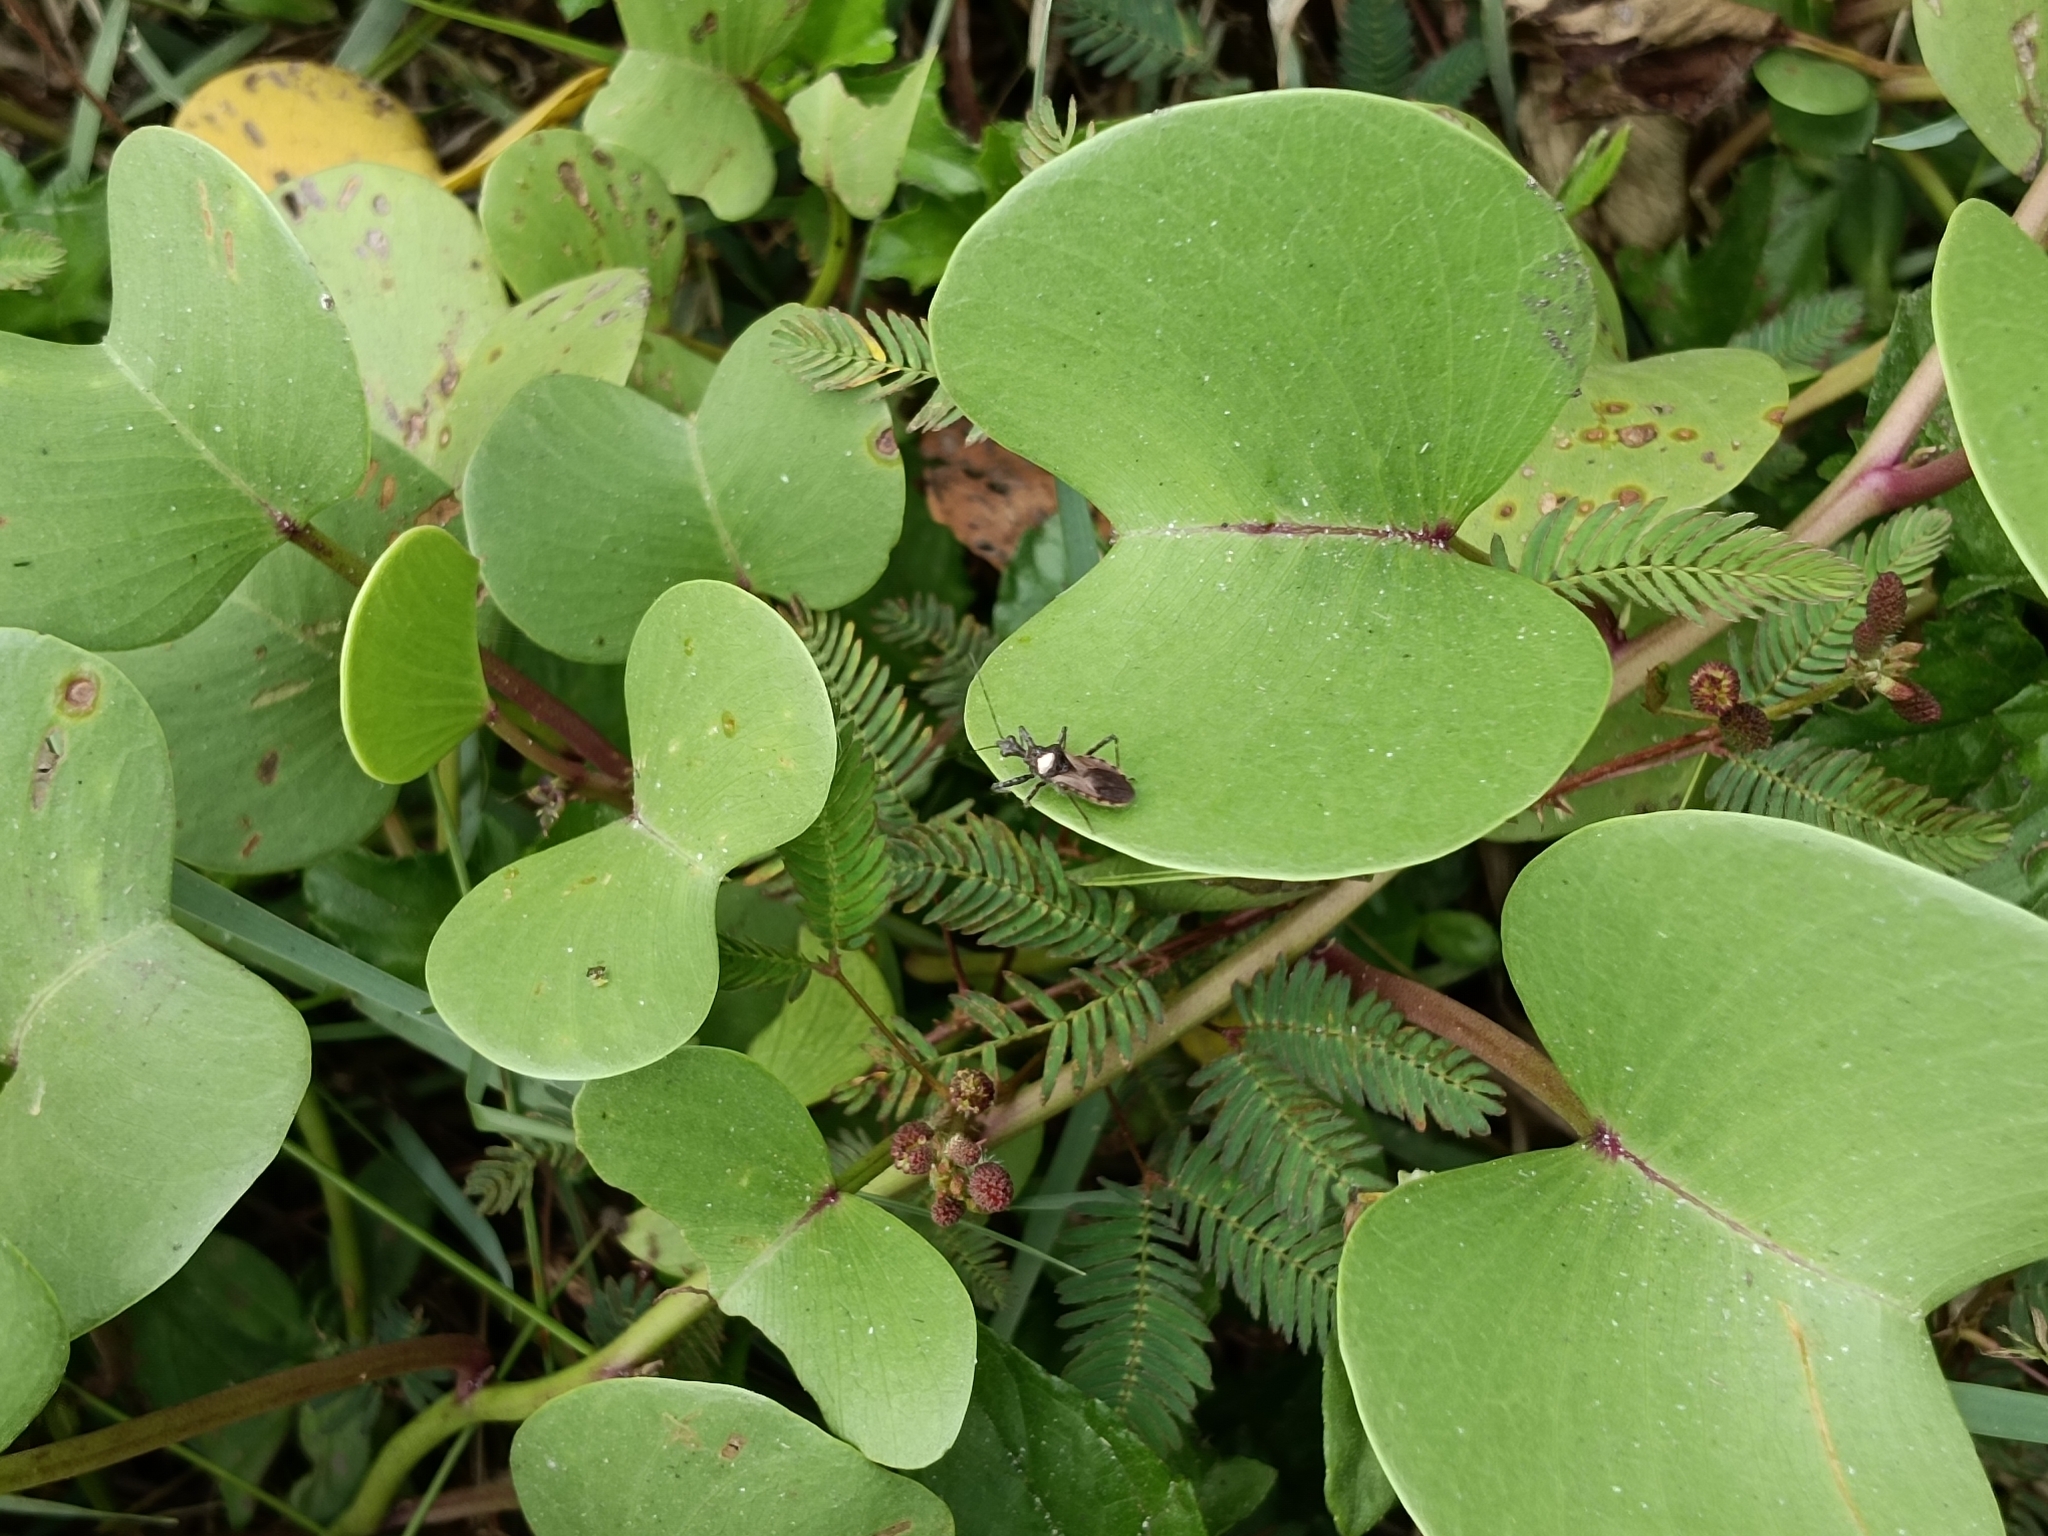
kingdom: Plantae
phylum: Tracheophyta
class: Magnoliopsida
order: Solanales
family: Convolvulaceae
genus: Ipomoea
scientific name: Ipomoea pes-caprae
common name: Beach morning glory
